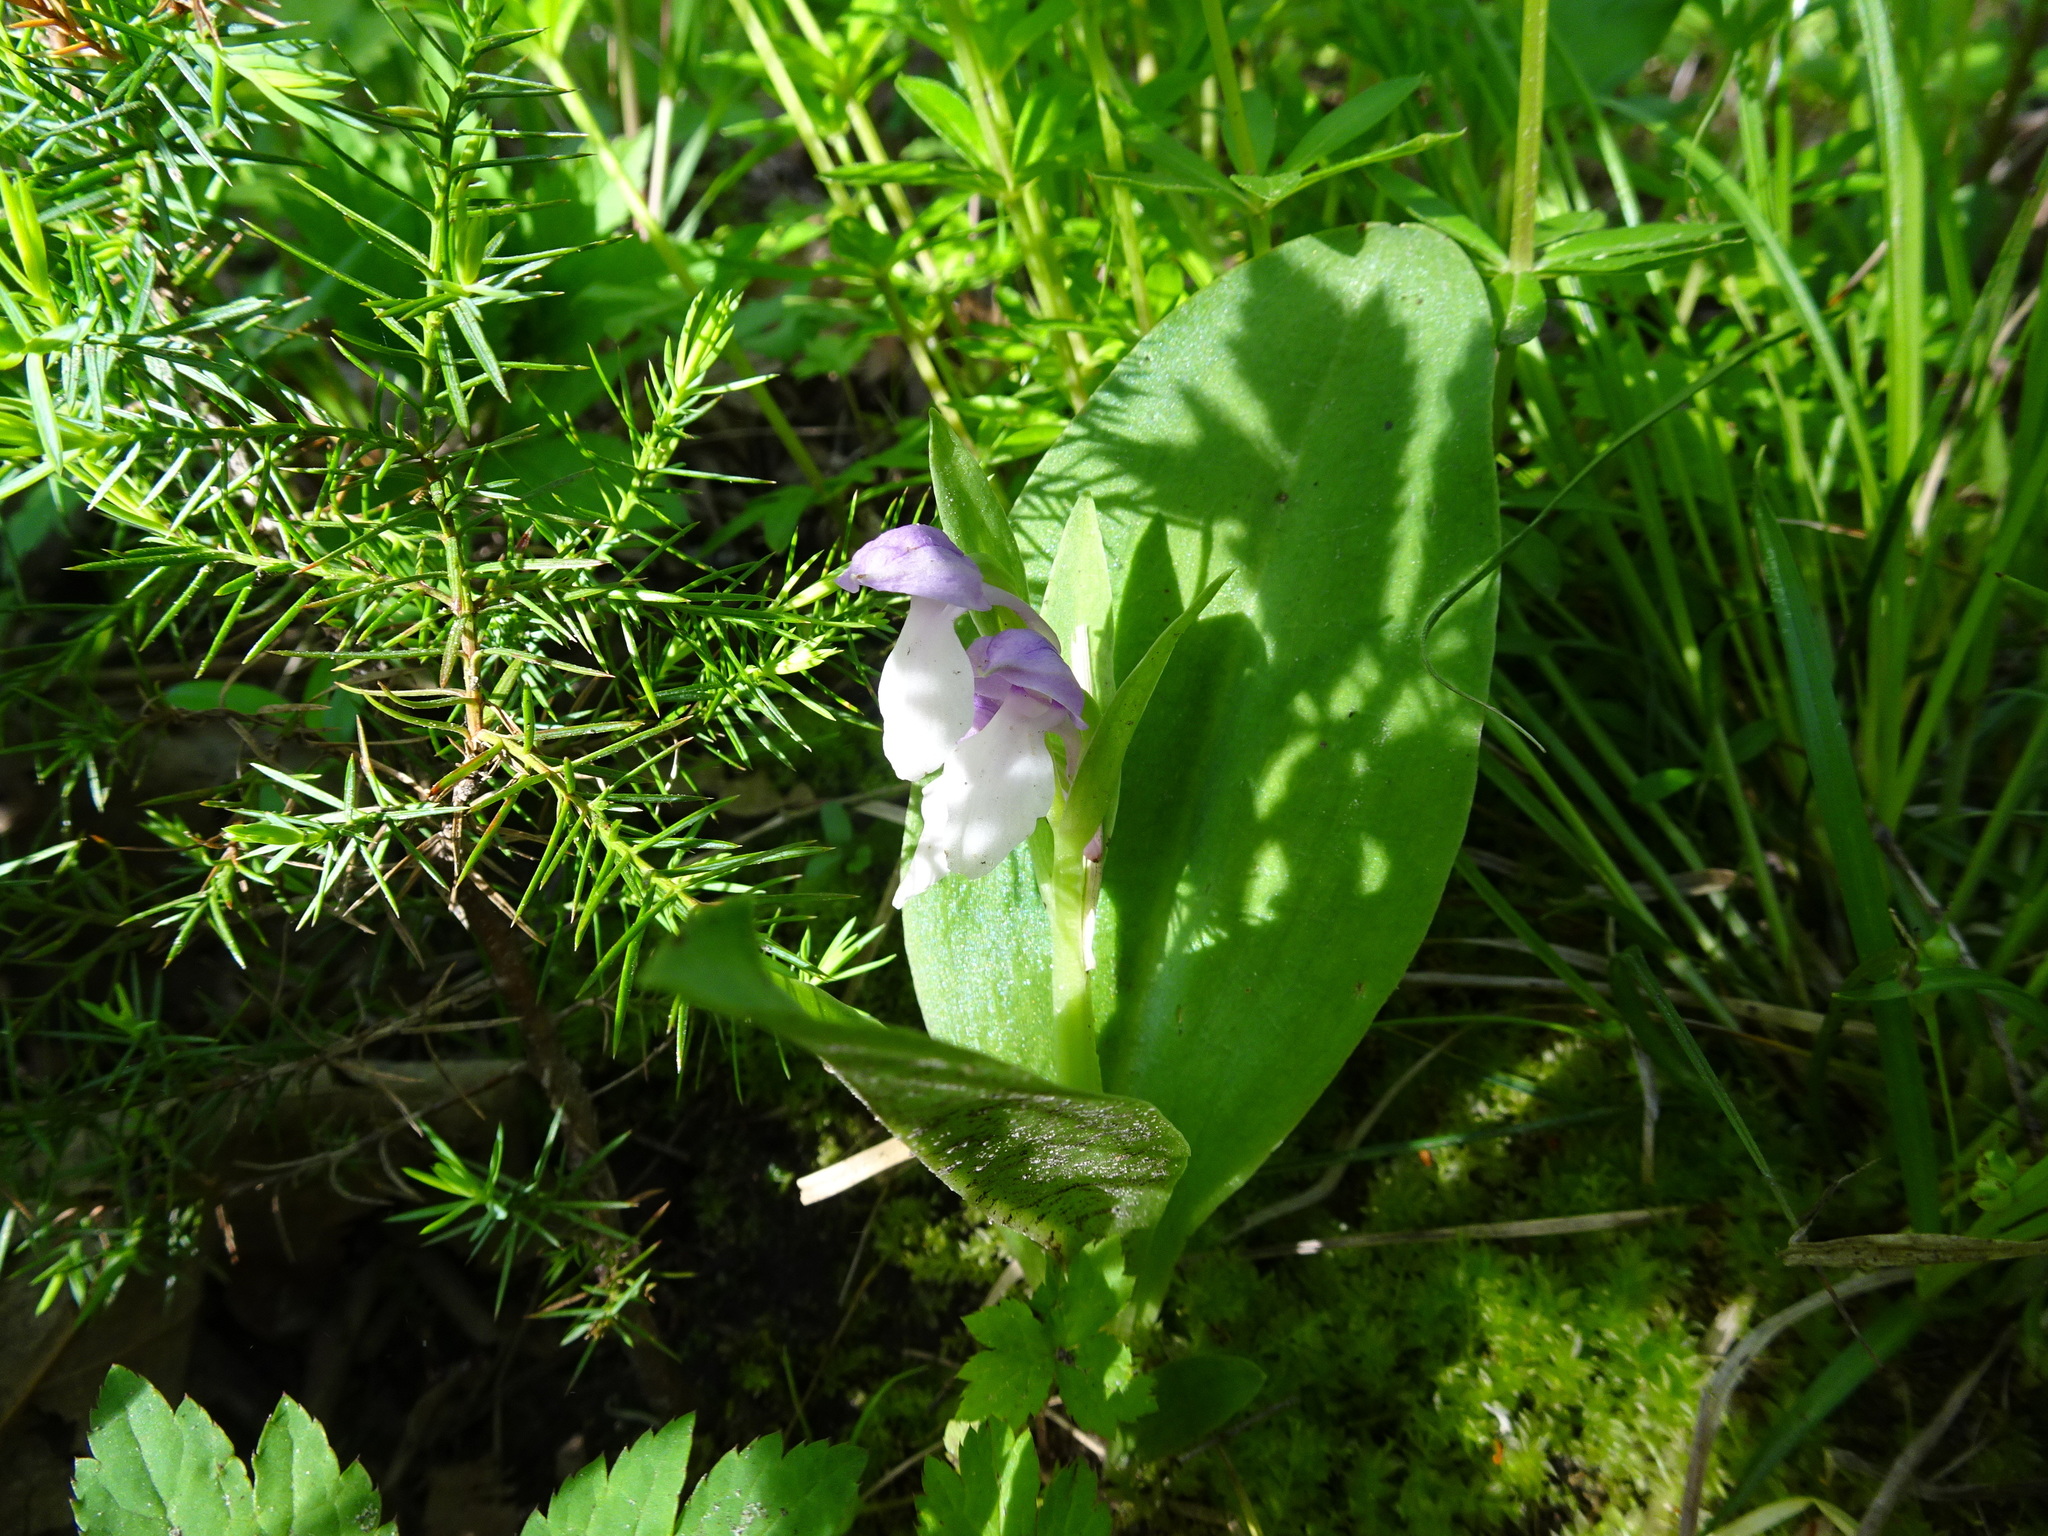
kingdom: Plantae
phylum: Tracheophyta
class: Liliopsida
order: Asparagales
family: Orchidaceae
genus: Galearis
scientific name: Galearis spectabilis
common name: Purple-hooded orchis
